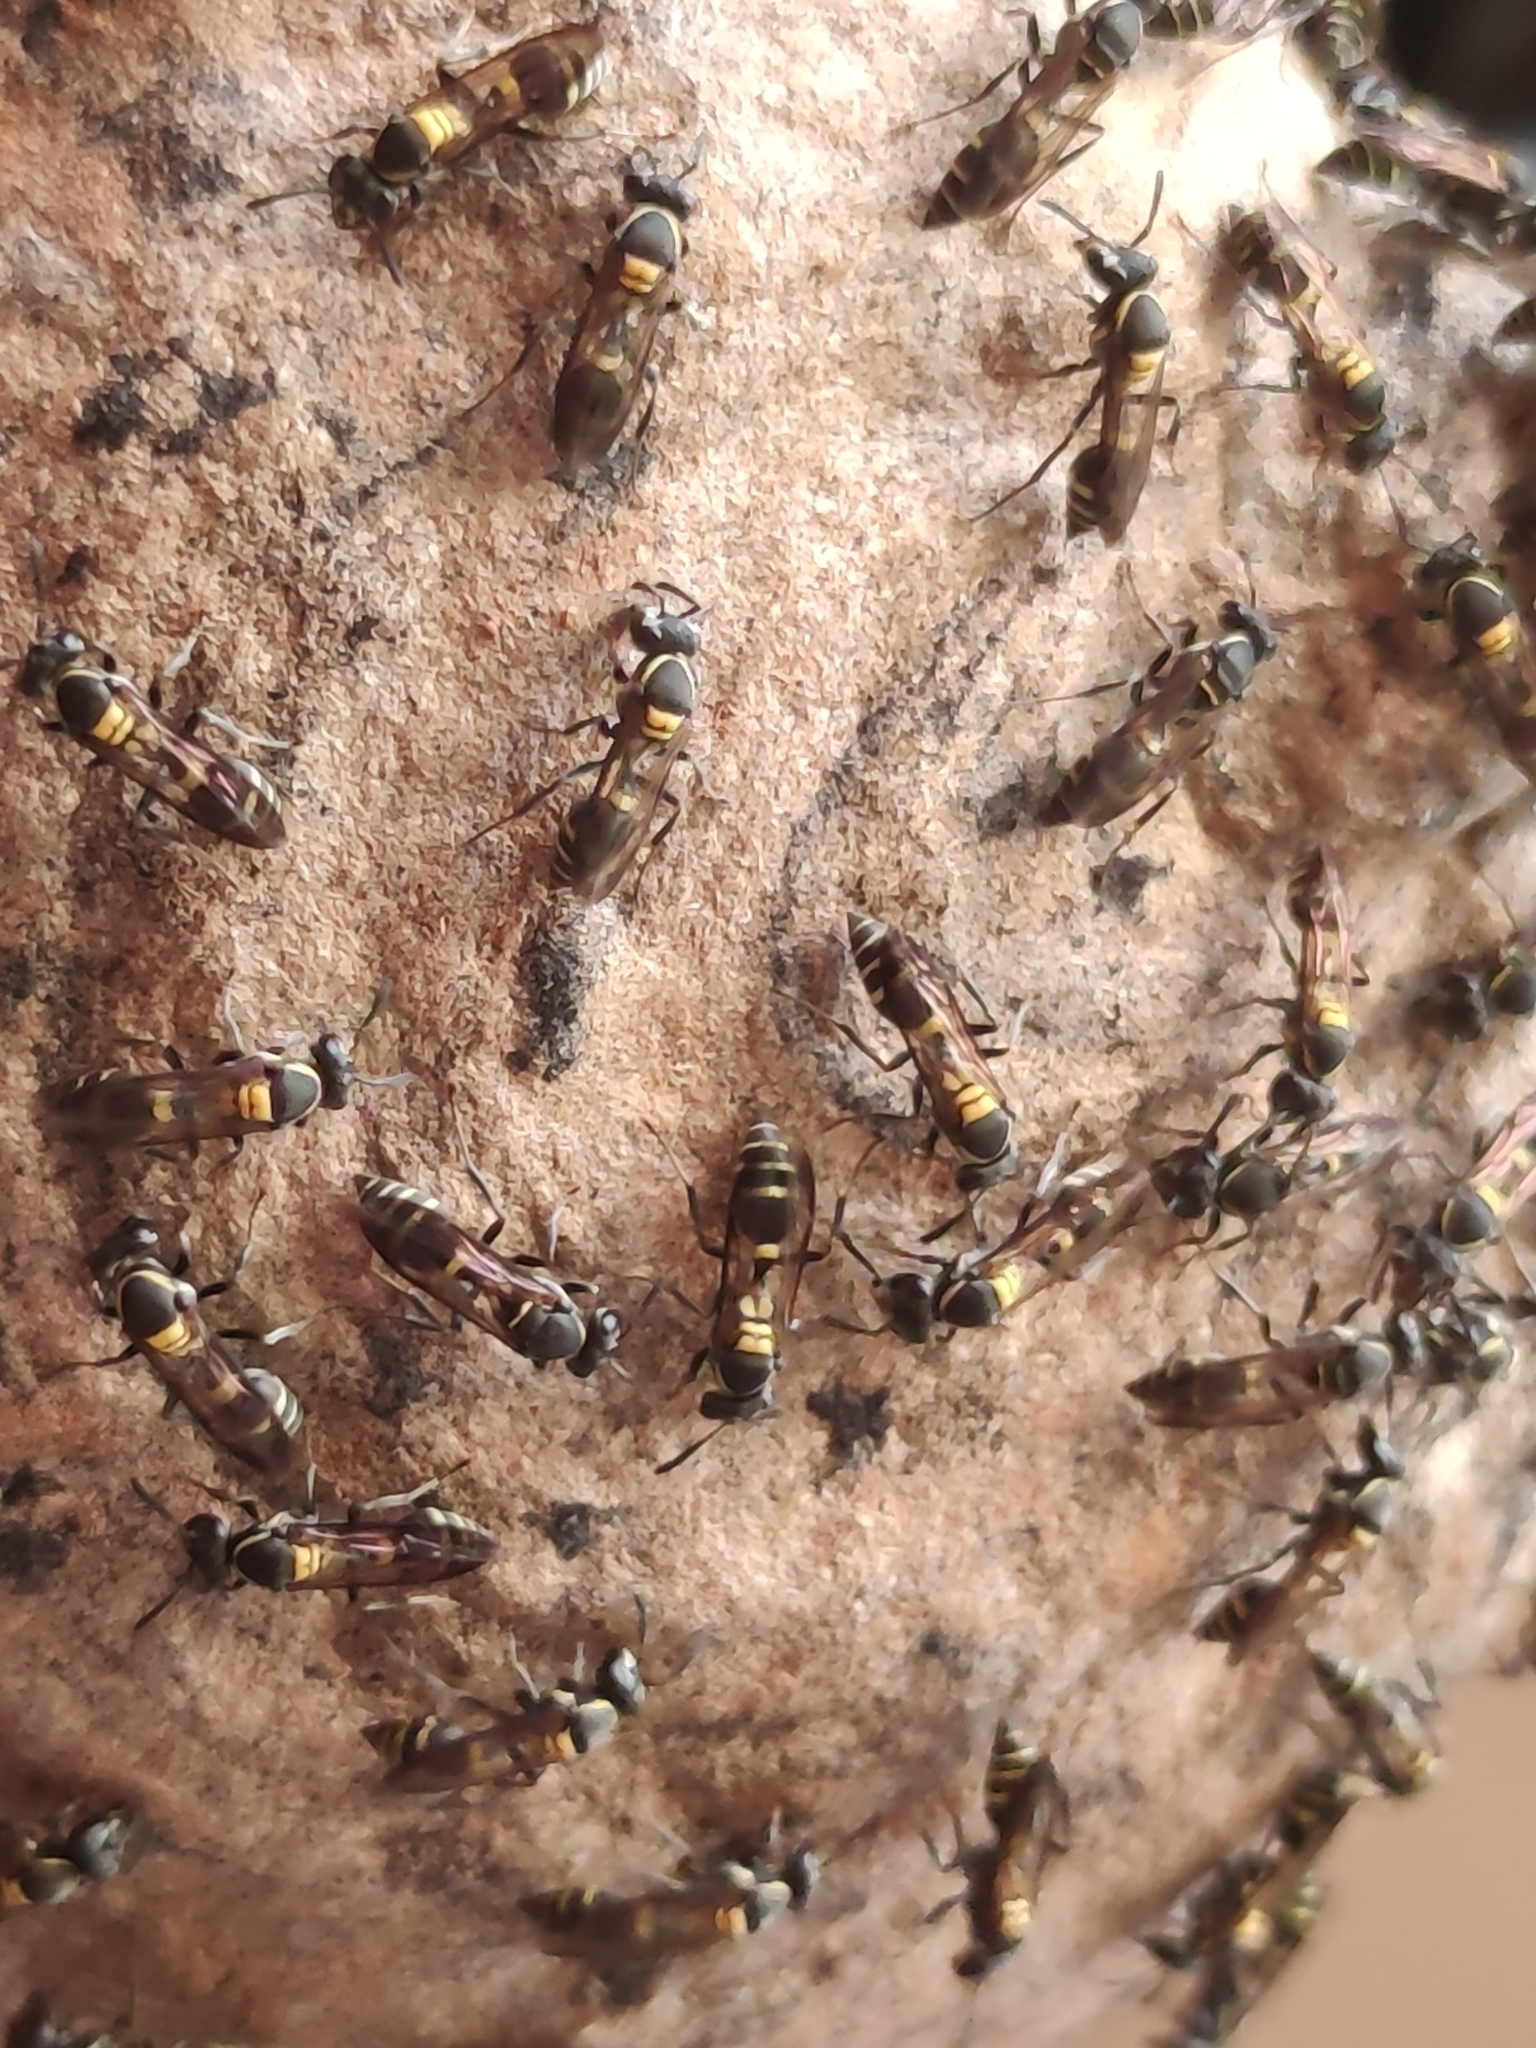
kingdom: Animalia
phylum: Arthropoda
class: Insecta
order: Hymenoptera
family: Eumenidae
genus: Polybia
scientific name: Polybia occidentalis
